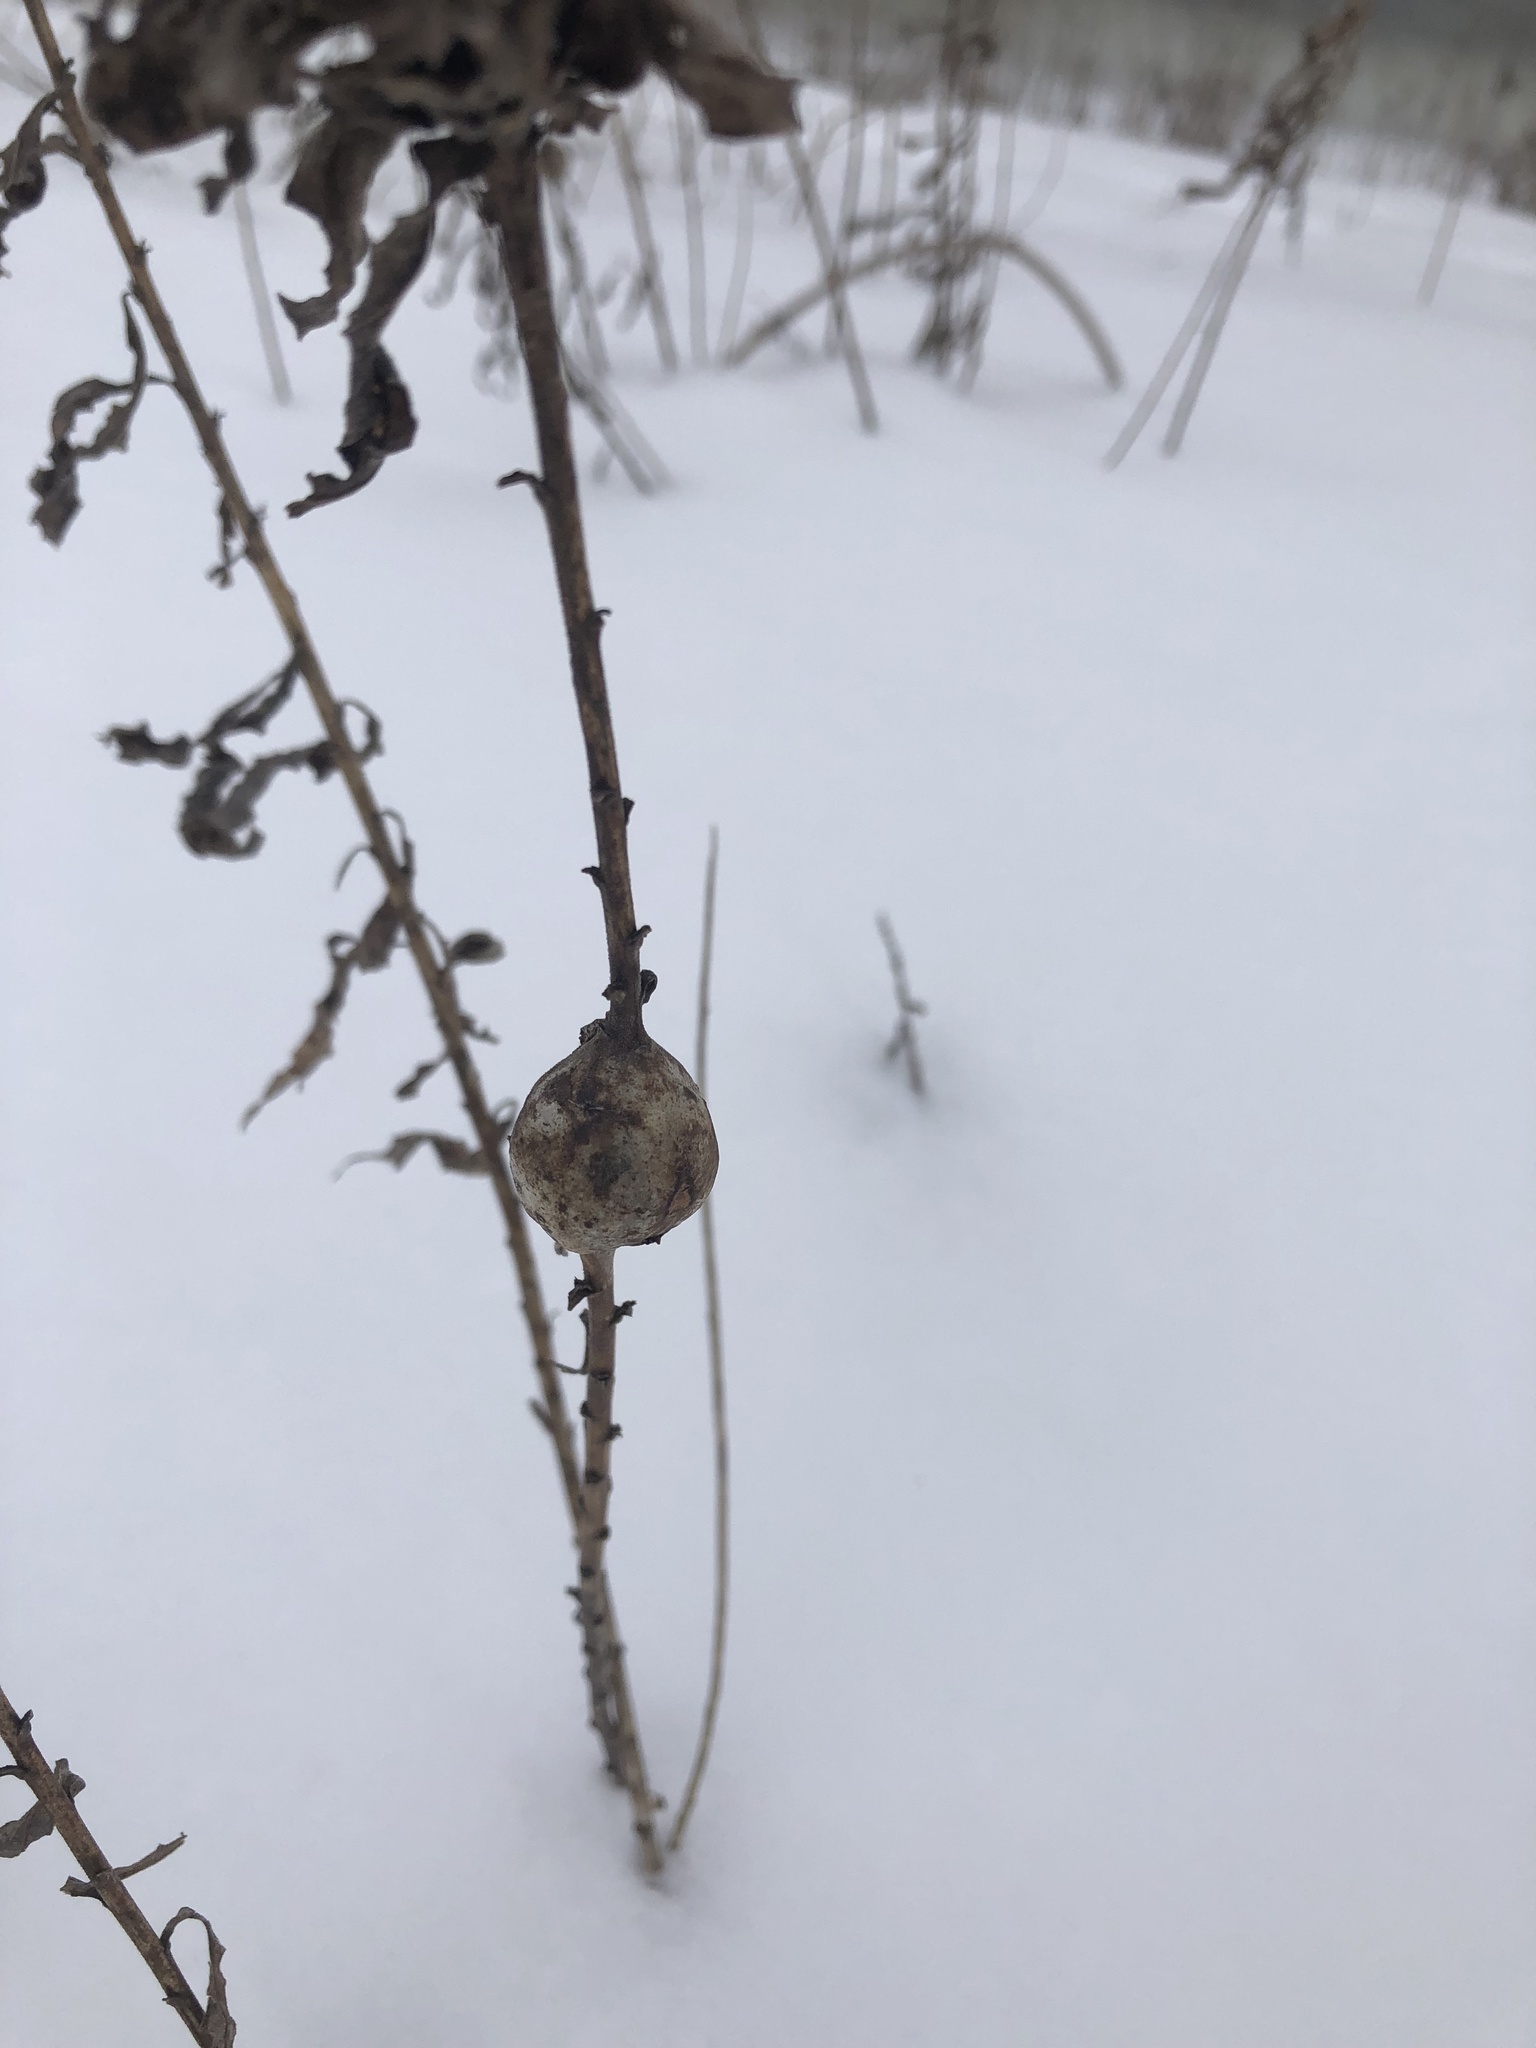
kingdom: Animalia
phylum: Arthropoda
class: Insecta
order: Diptera
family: Tephritidae
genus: Eurosta
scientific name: Eurosta solidaginis
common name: Goldenrod gall fly
